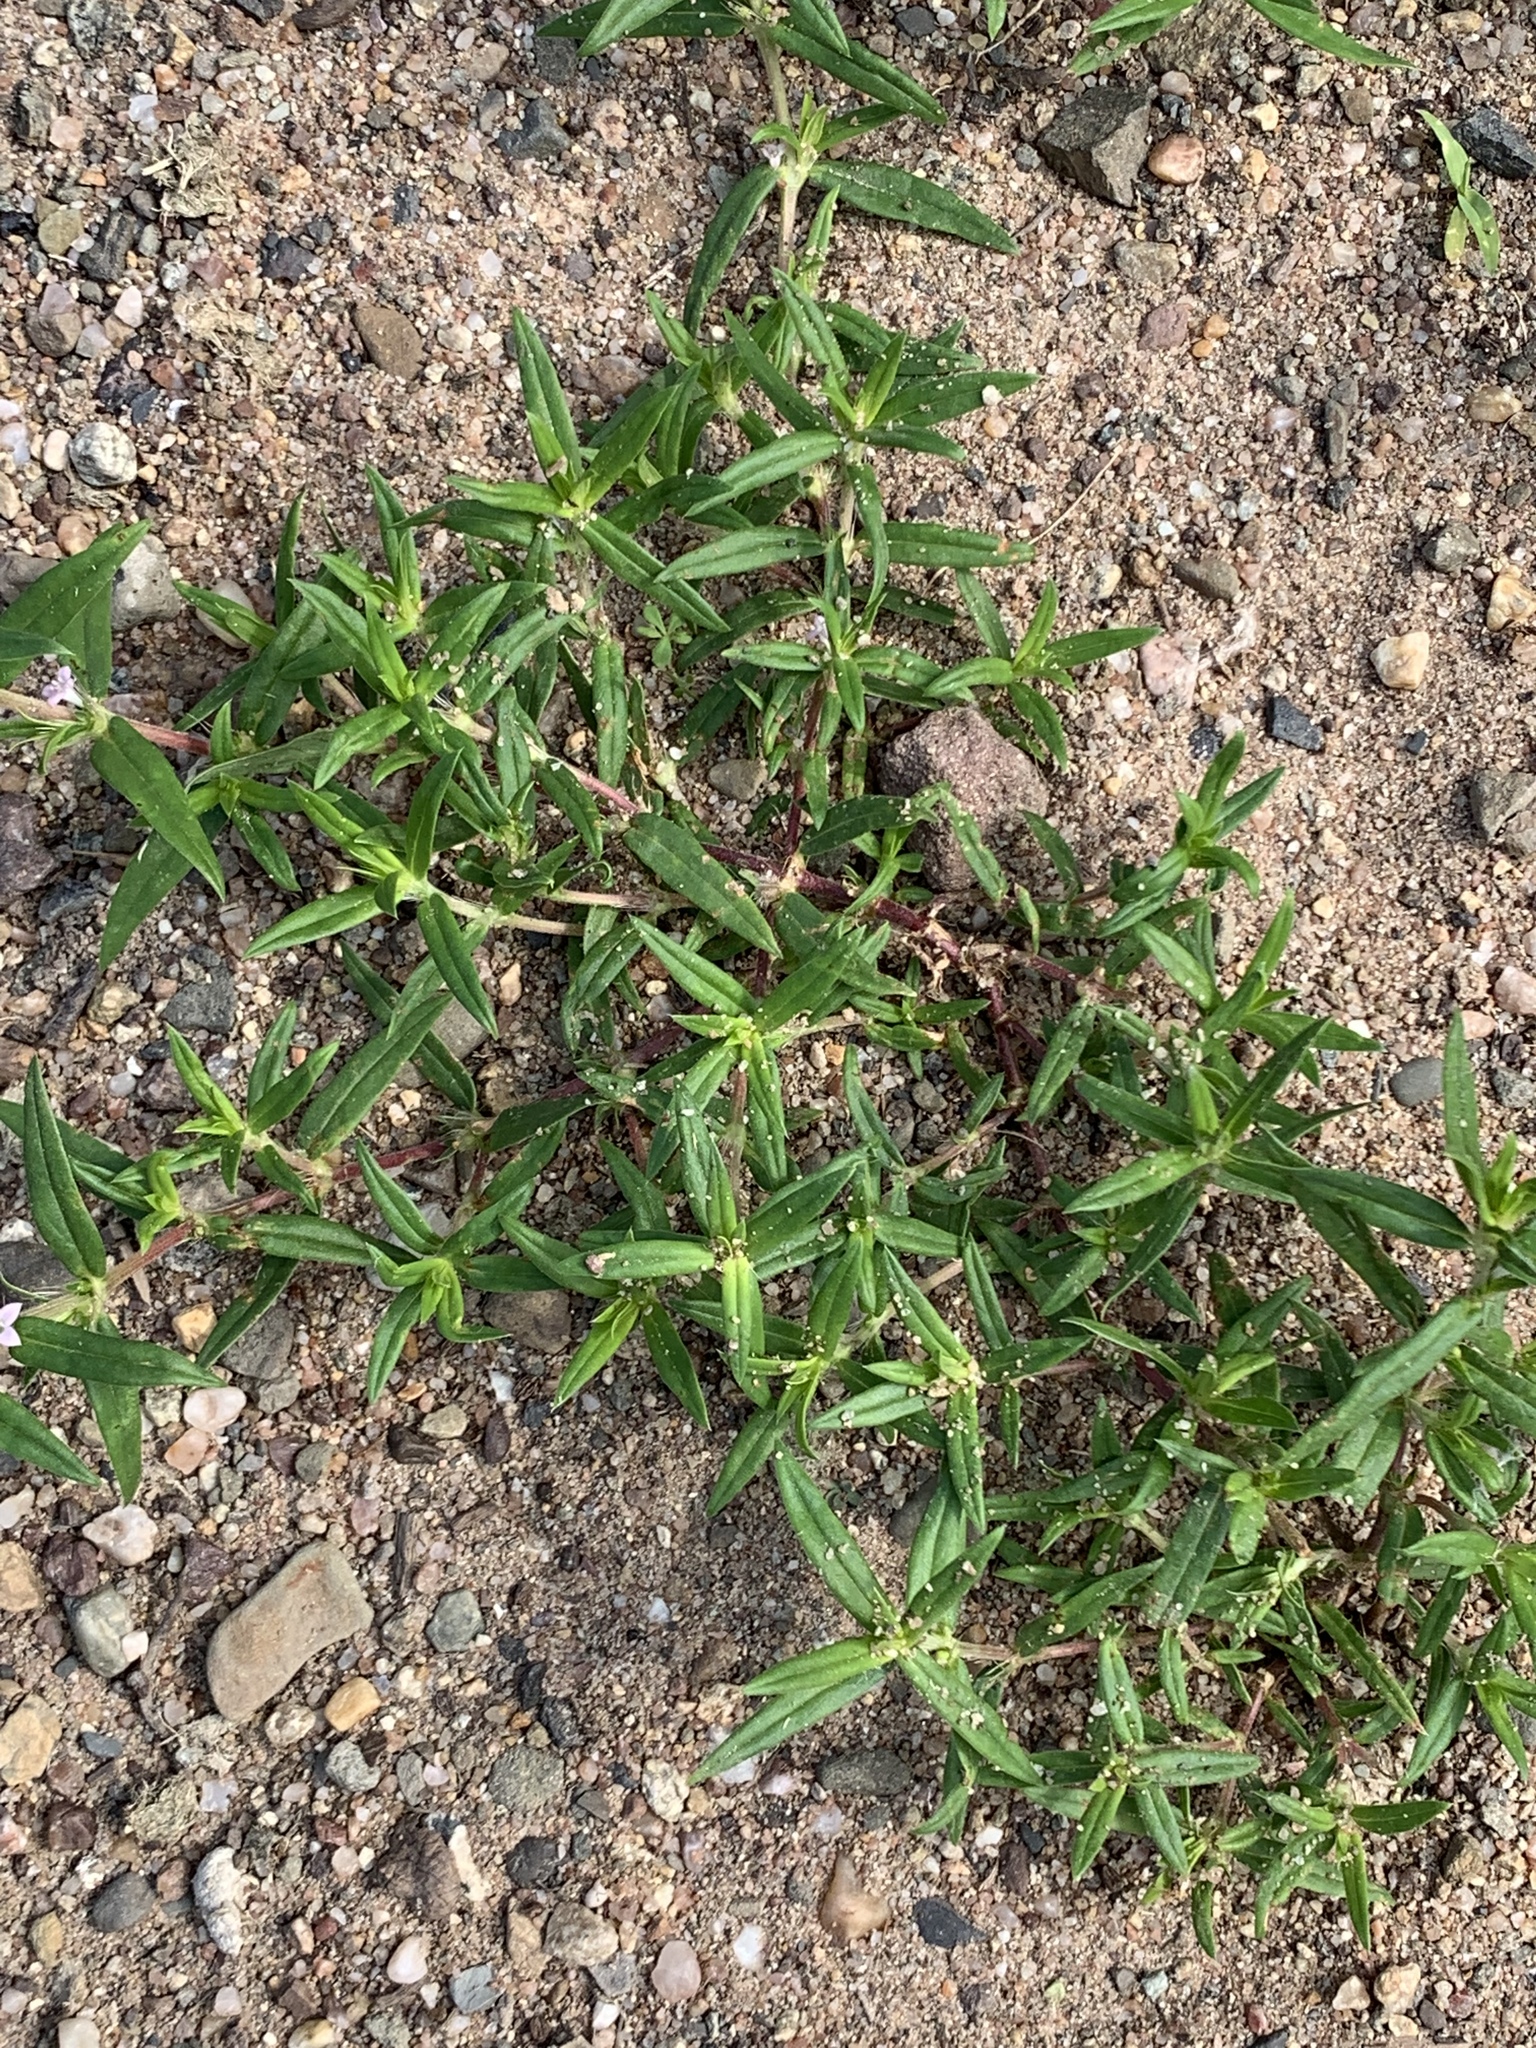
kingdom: Plantae
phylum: Tracheophyta
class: Magnoliopsida
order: Gentianales
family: Rubiaceae
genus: Hexasepalum
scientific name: Hexasepalum teres
